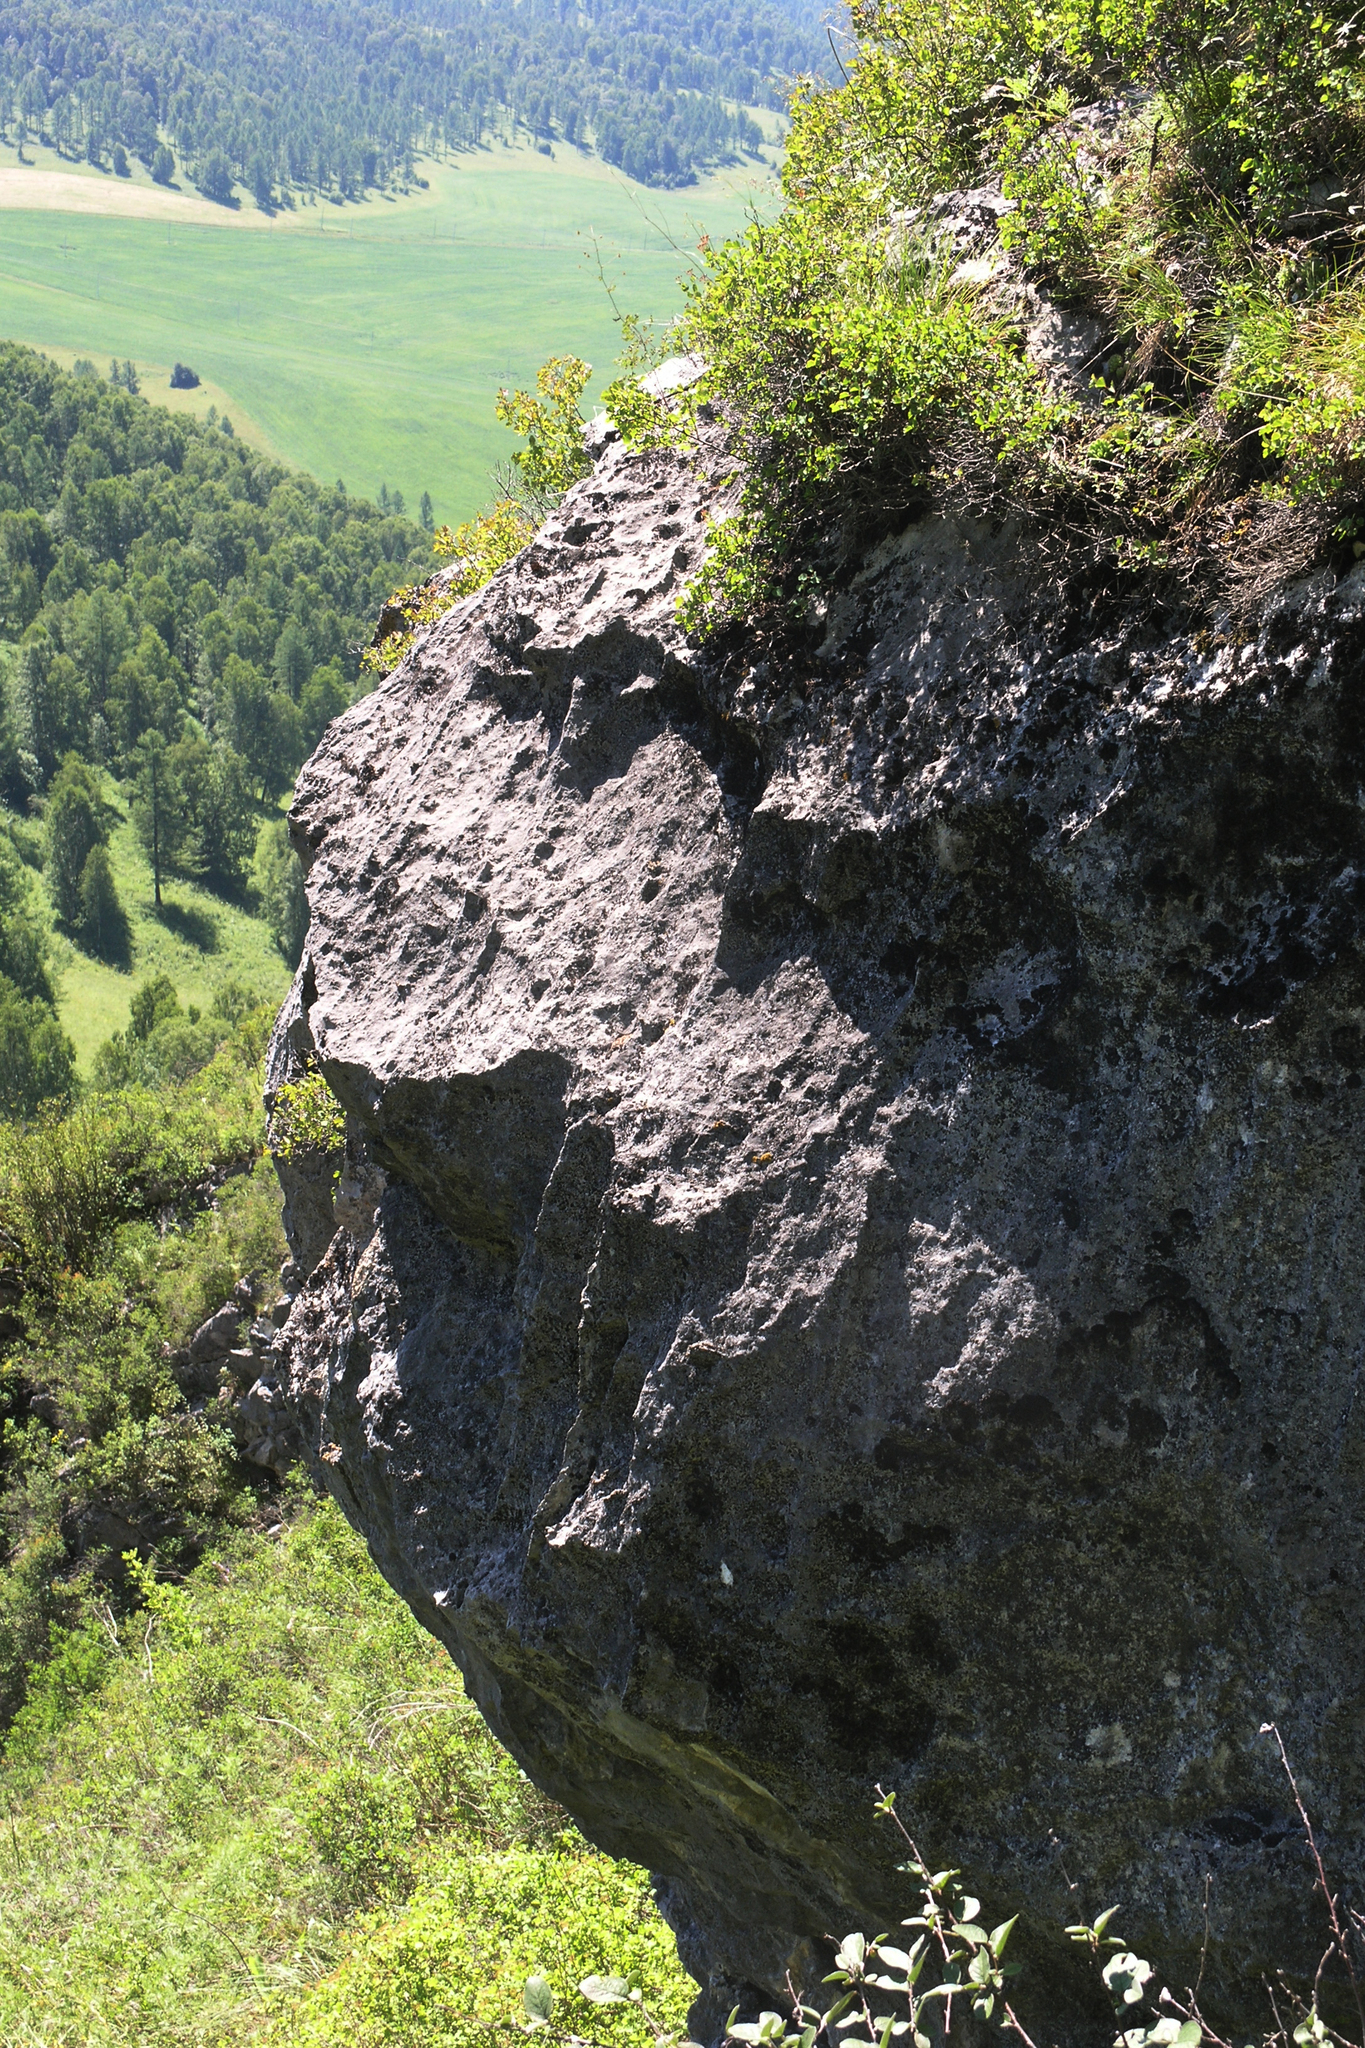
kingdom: Plantae
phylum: Tracheophyta
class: Magnoliopsida
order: Rosales
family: Rosaceae
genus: Spiraea
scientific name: Spiraea trilobata
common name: Asian meadowsweet
